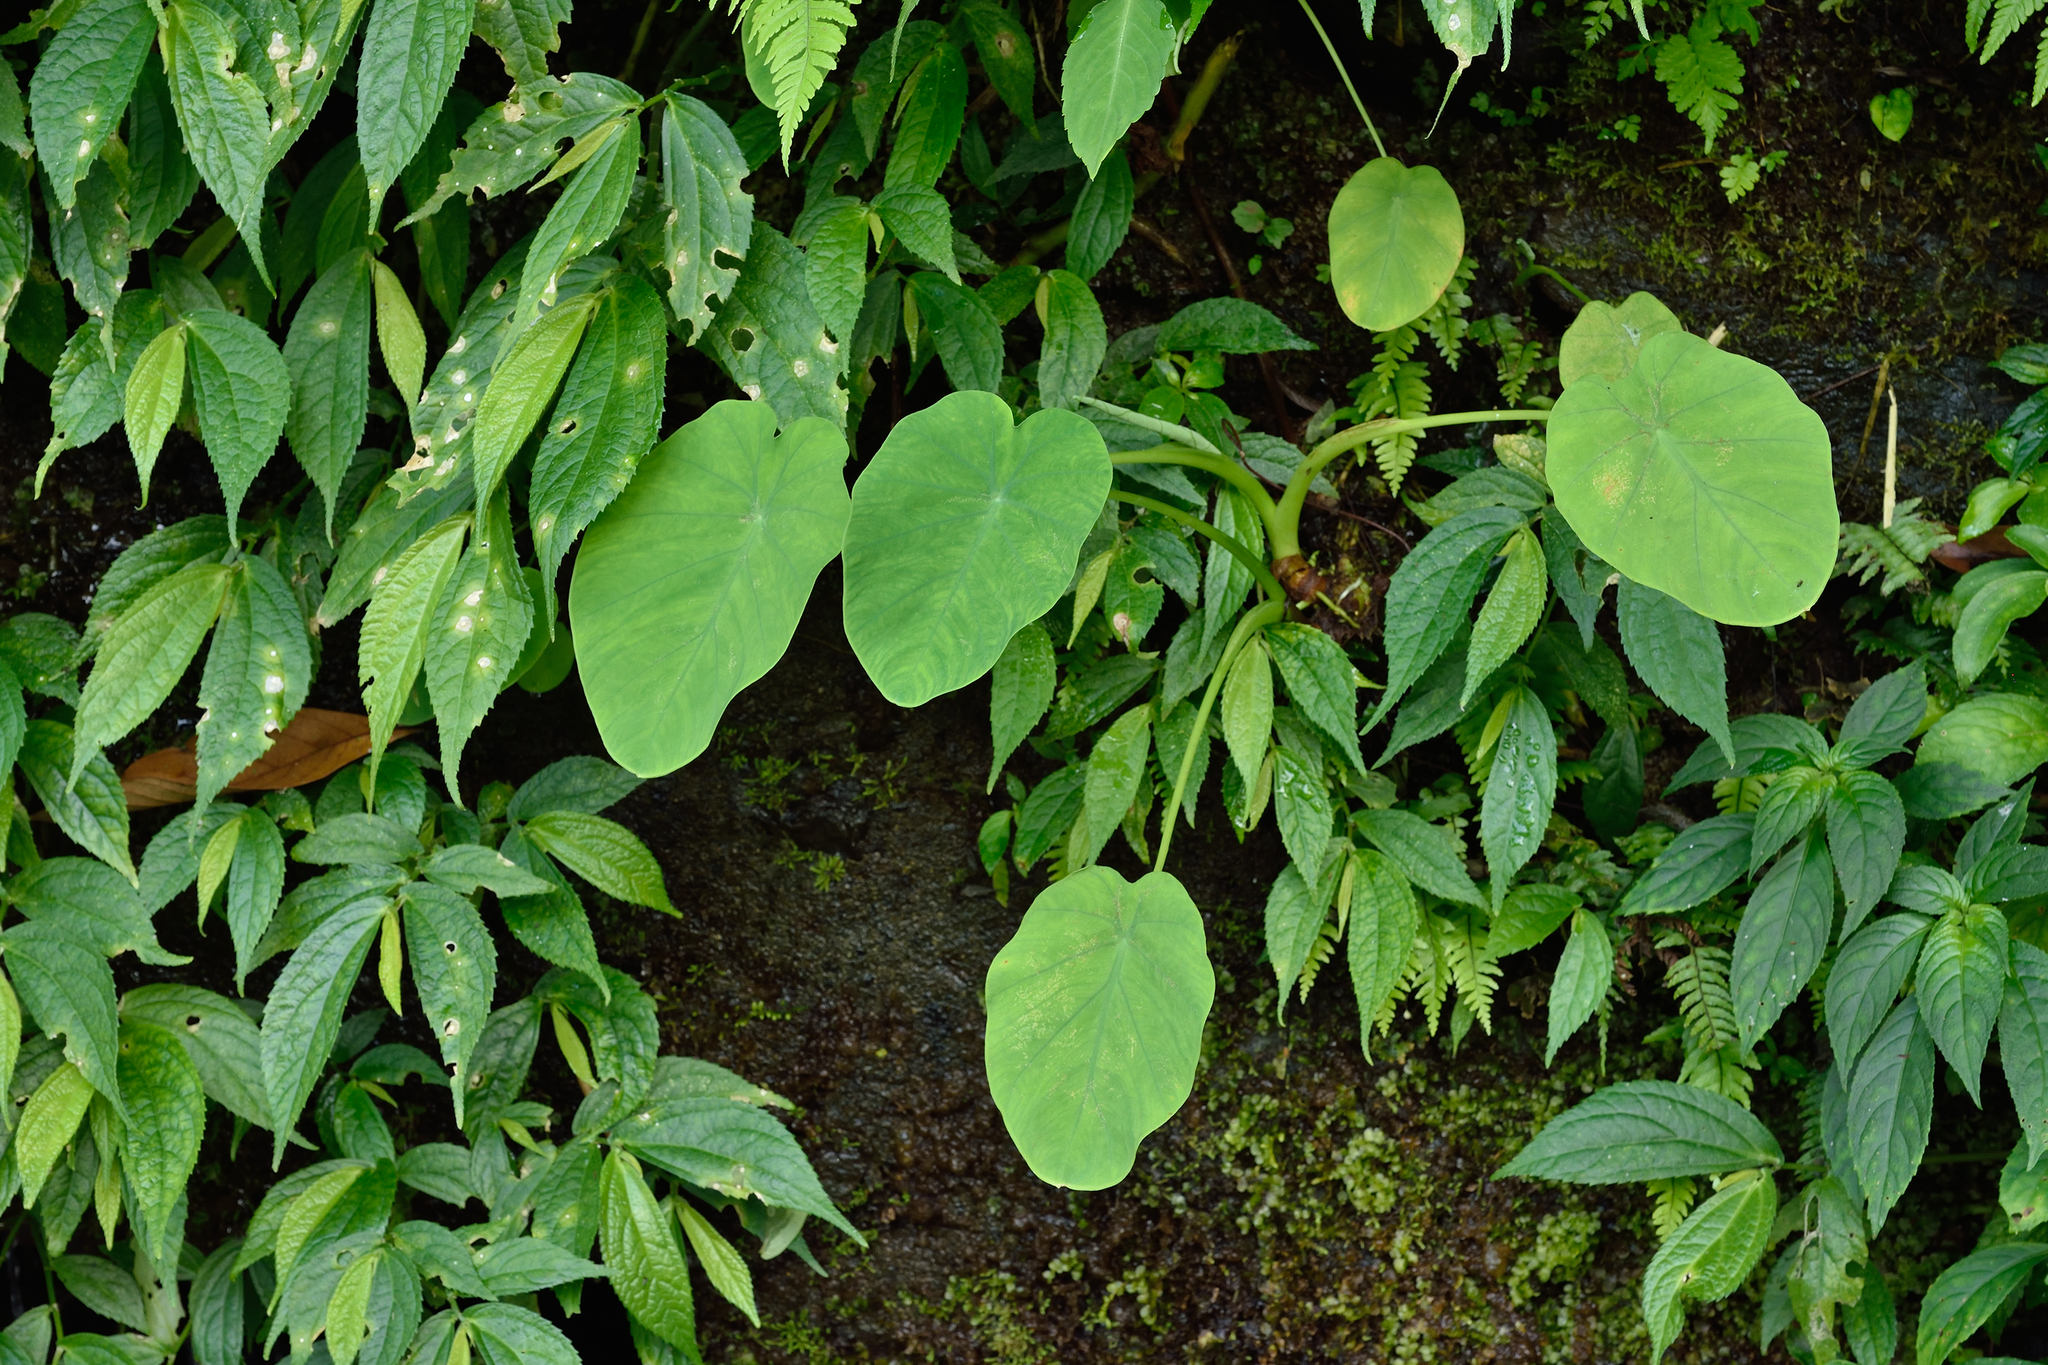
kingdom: Plantae
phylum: Tracheophyta
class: Liliopsida
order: Alismatales
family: Araceae
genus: Colocasia
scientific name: Colocasia esculenta
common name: Taro
